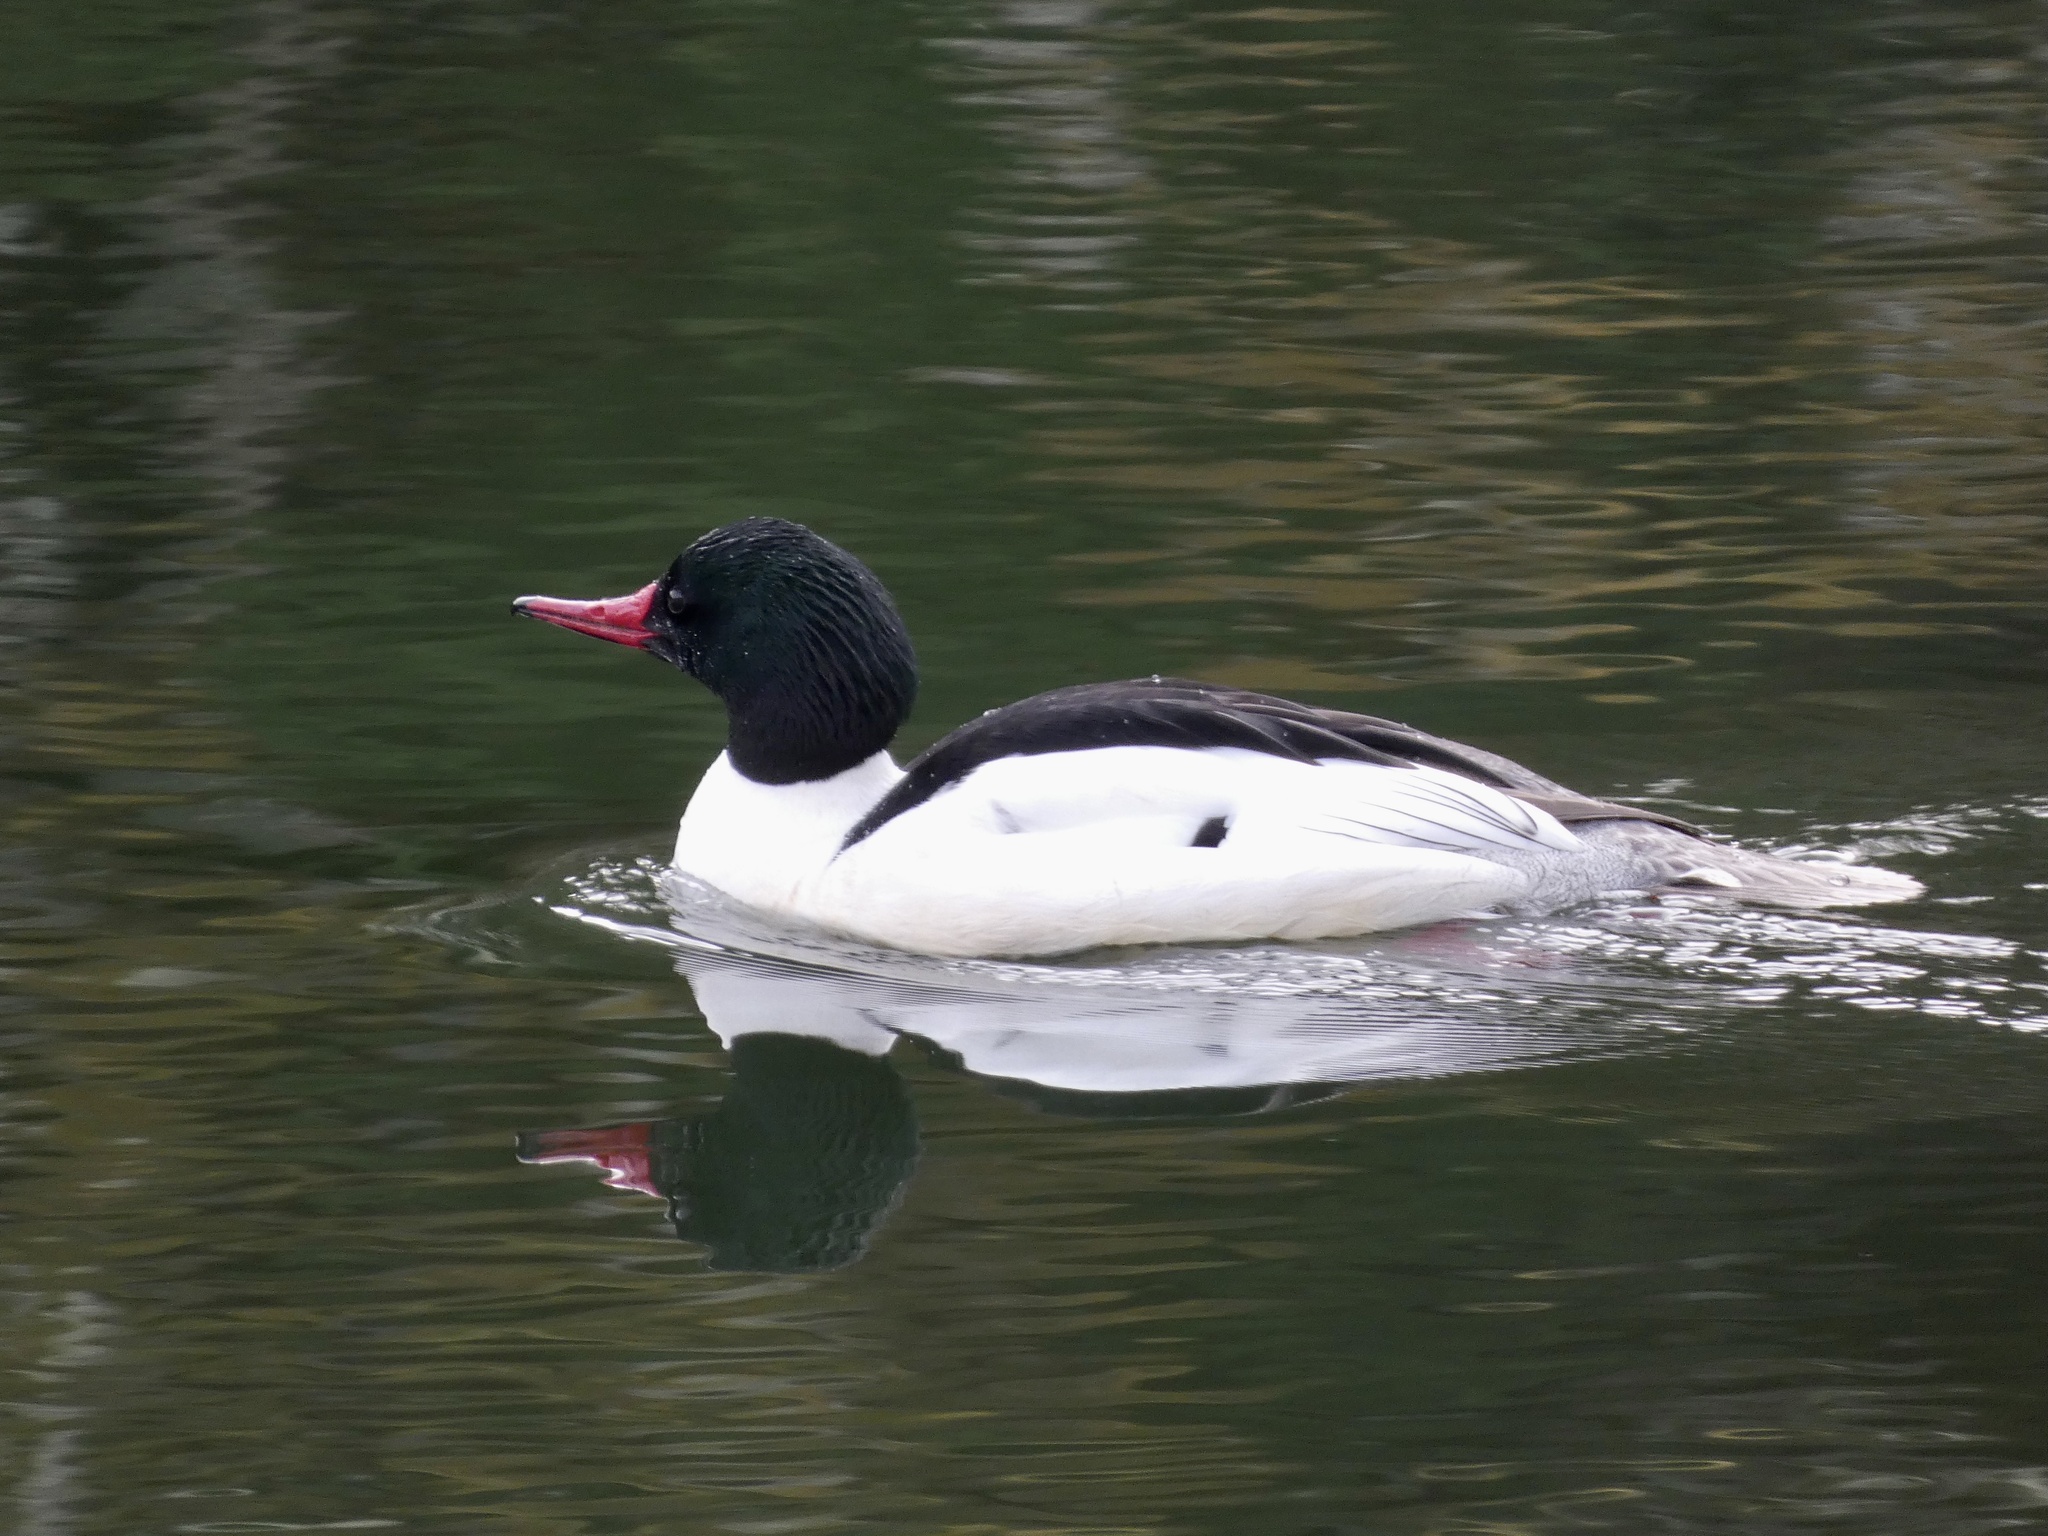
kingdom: Animalia
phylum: Chordata
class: Aves
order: Anseriformes
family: Anatidae
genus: Mergus
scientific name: Mergus merganser
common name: Common merganser
